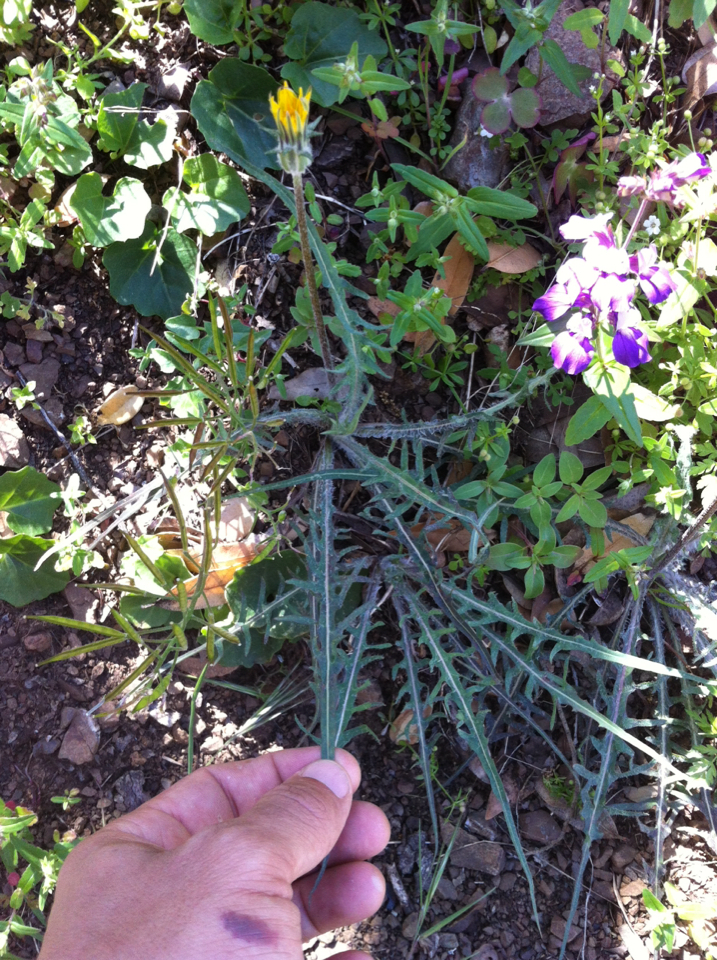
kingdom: Plantae
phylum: Tracheophyta
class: Magnoliopsida
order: Asterales
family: Asteraceae
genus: Agoseris
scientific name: Agoseris retrorsa
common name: Spearleaf agoseris
